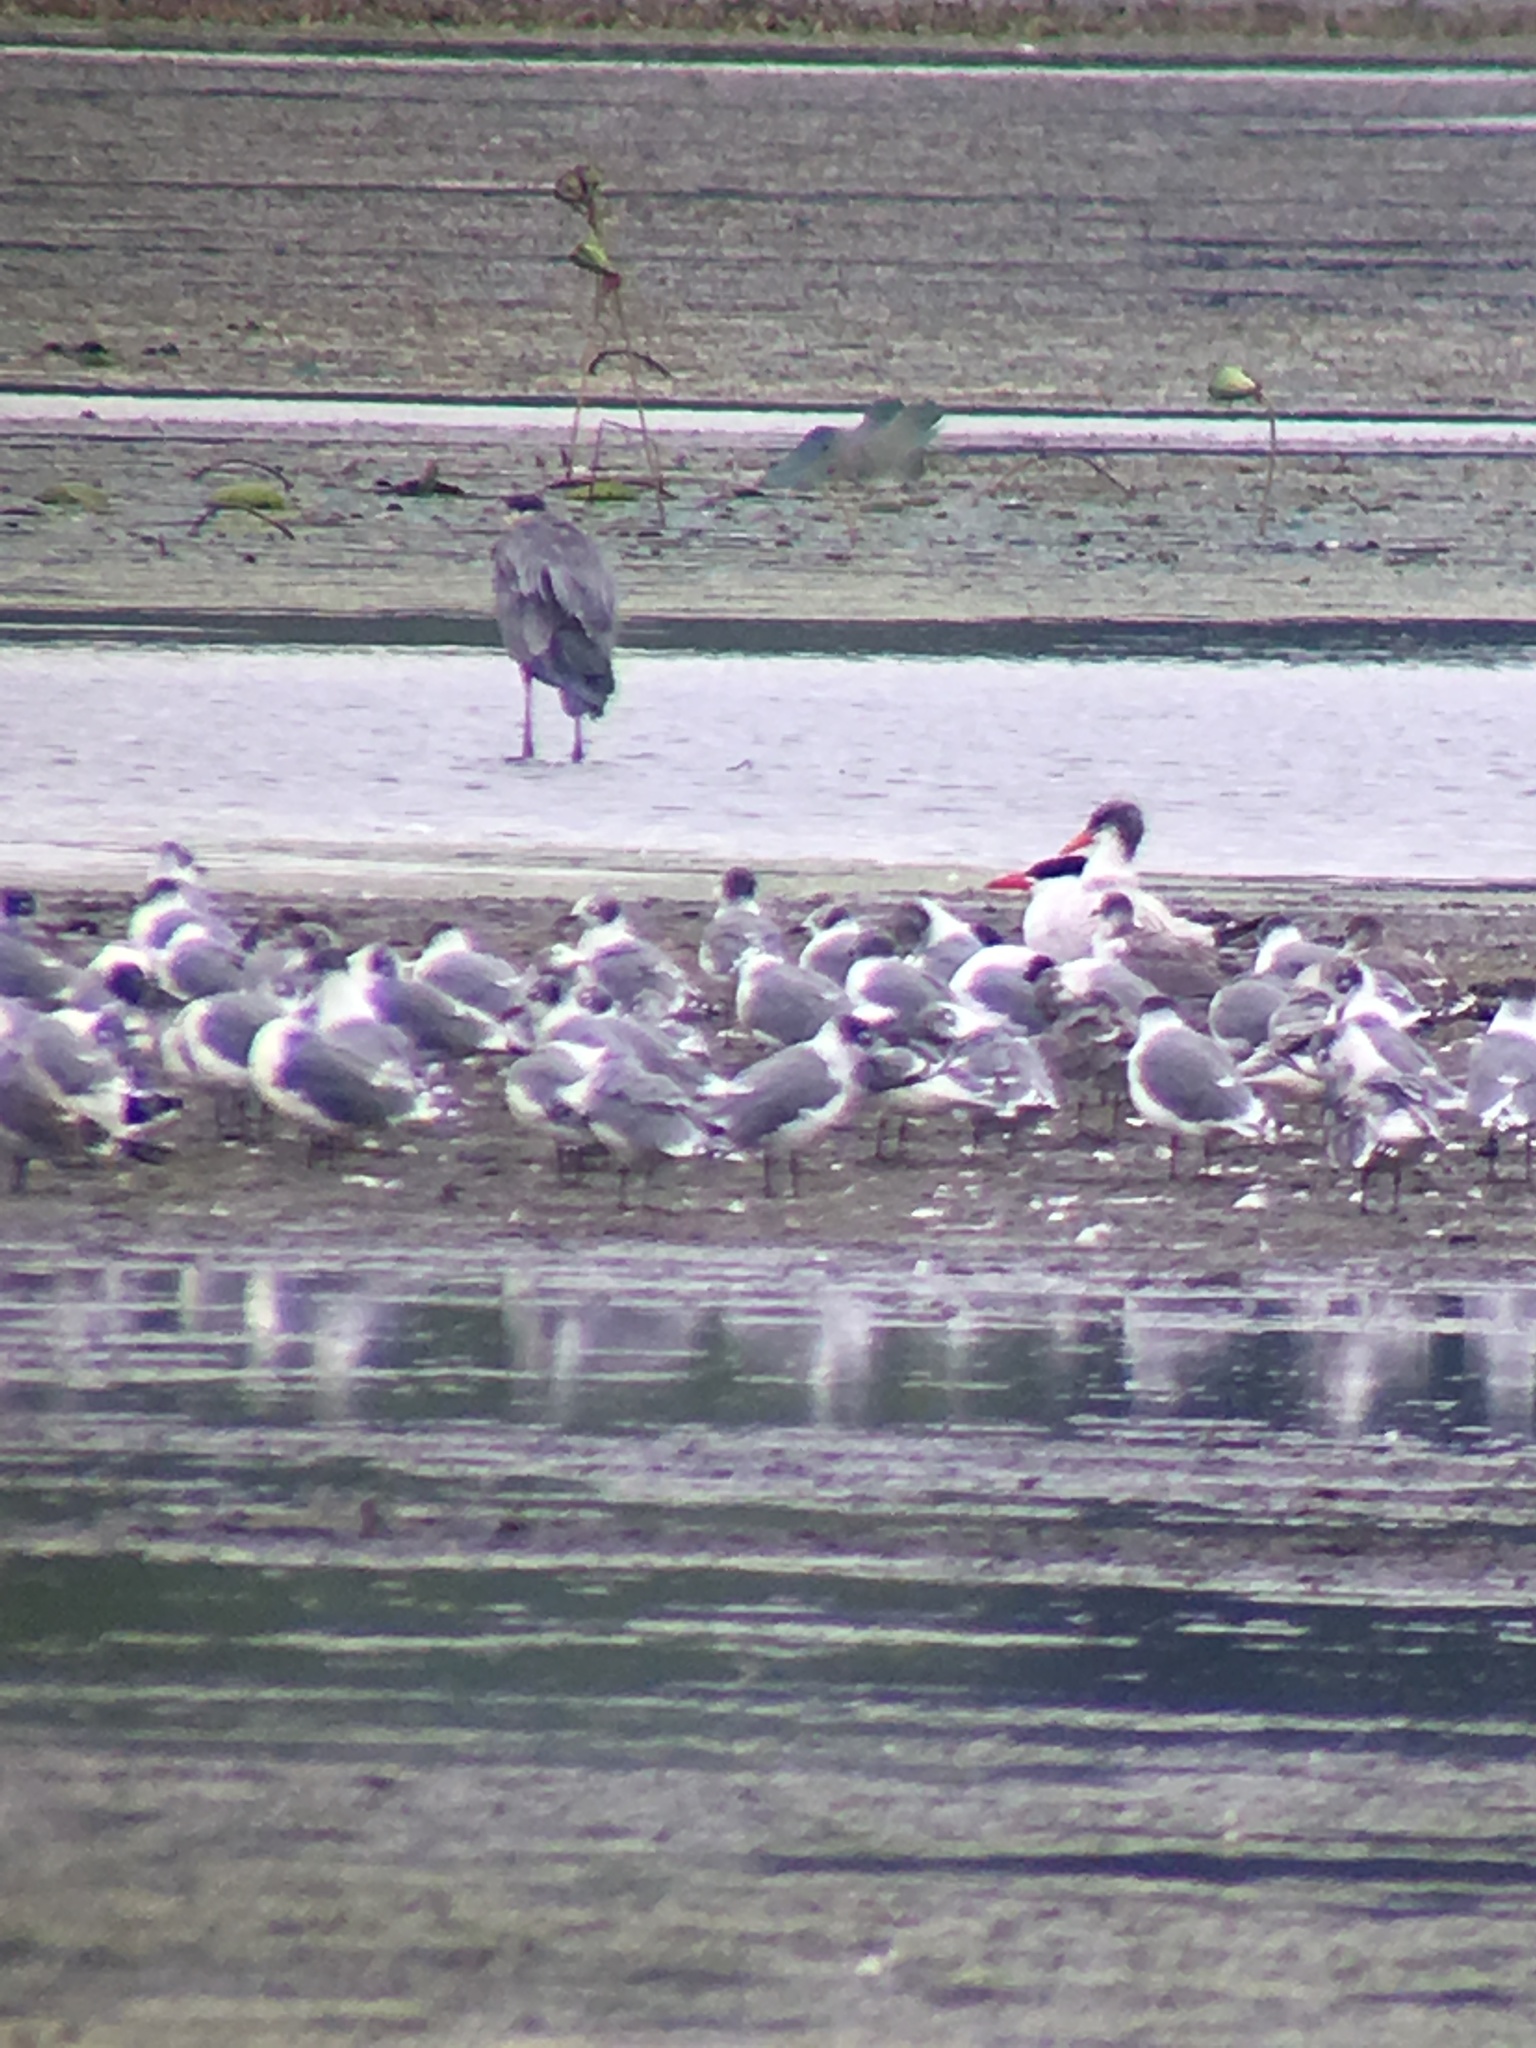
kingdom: Animalia
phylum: Chordata
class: Aves
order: Charadriiformes
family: Laridae
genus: Leucophaeus
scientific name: Leucophaeus pipixcan
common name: Franklin's gull
